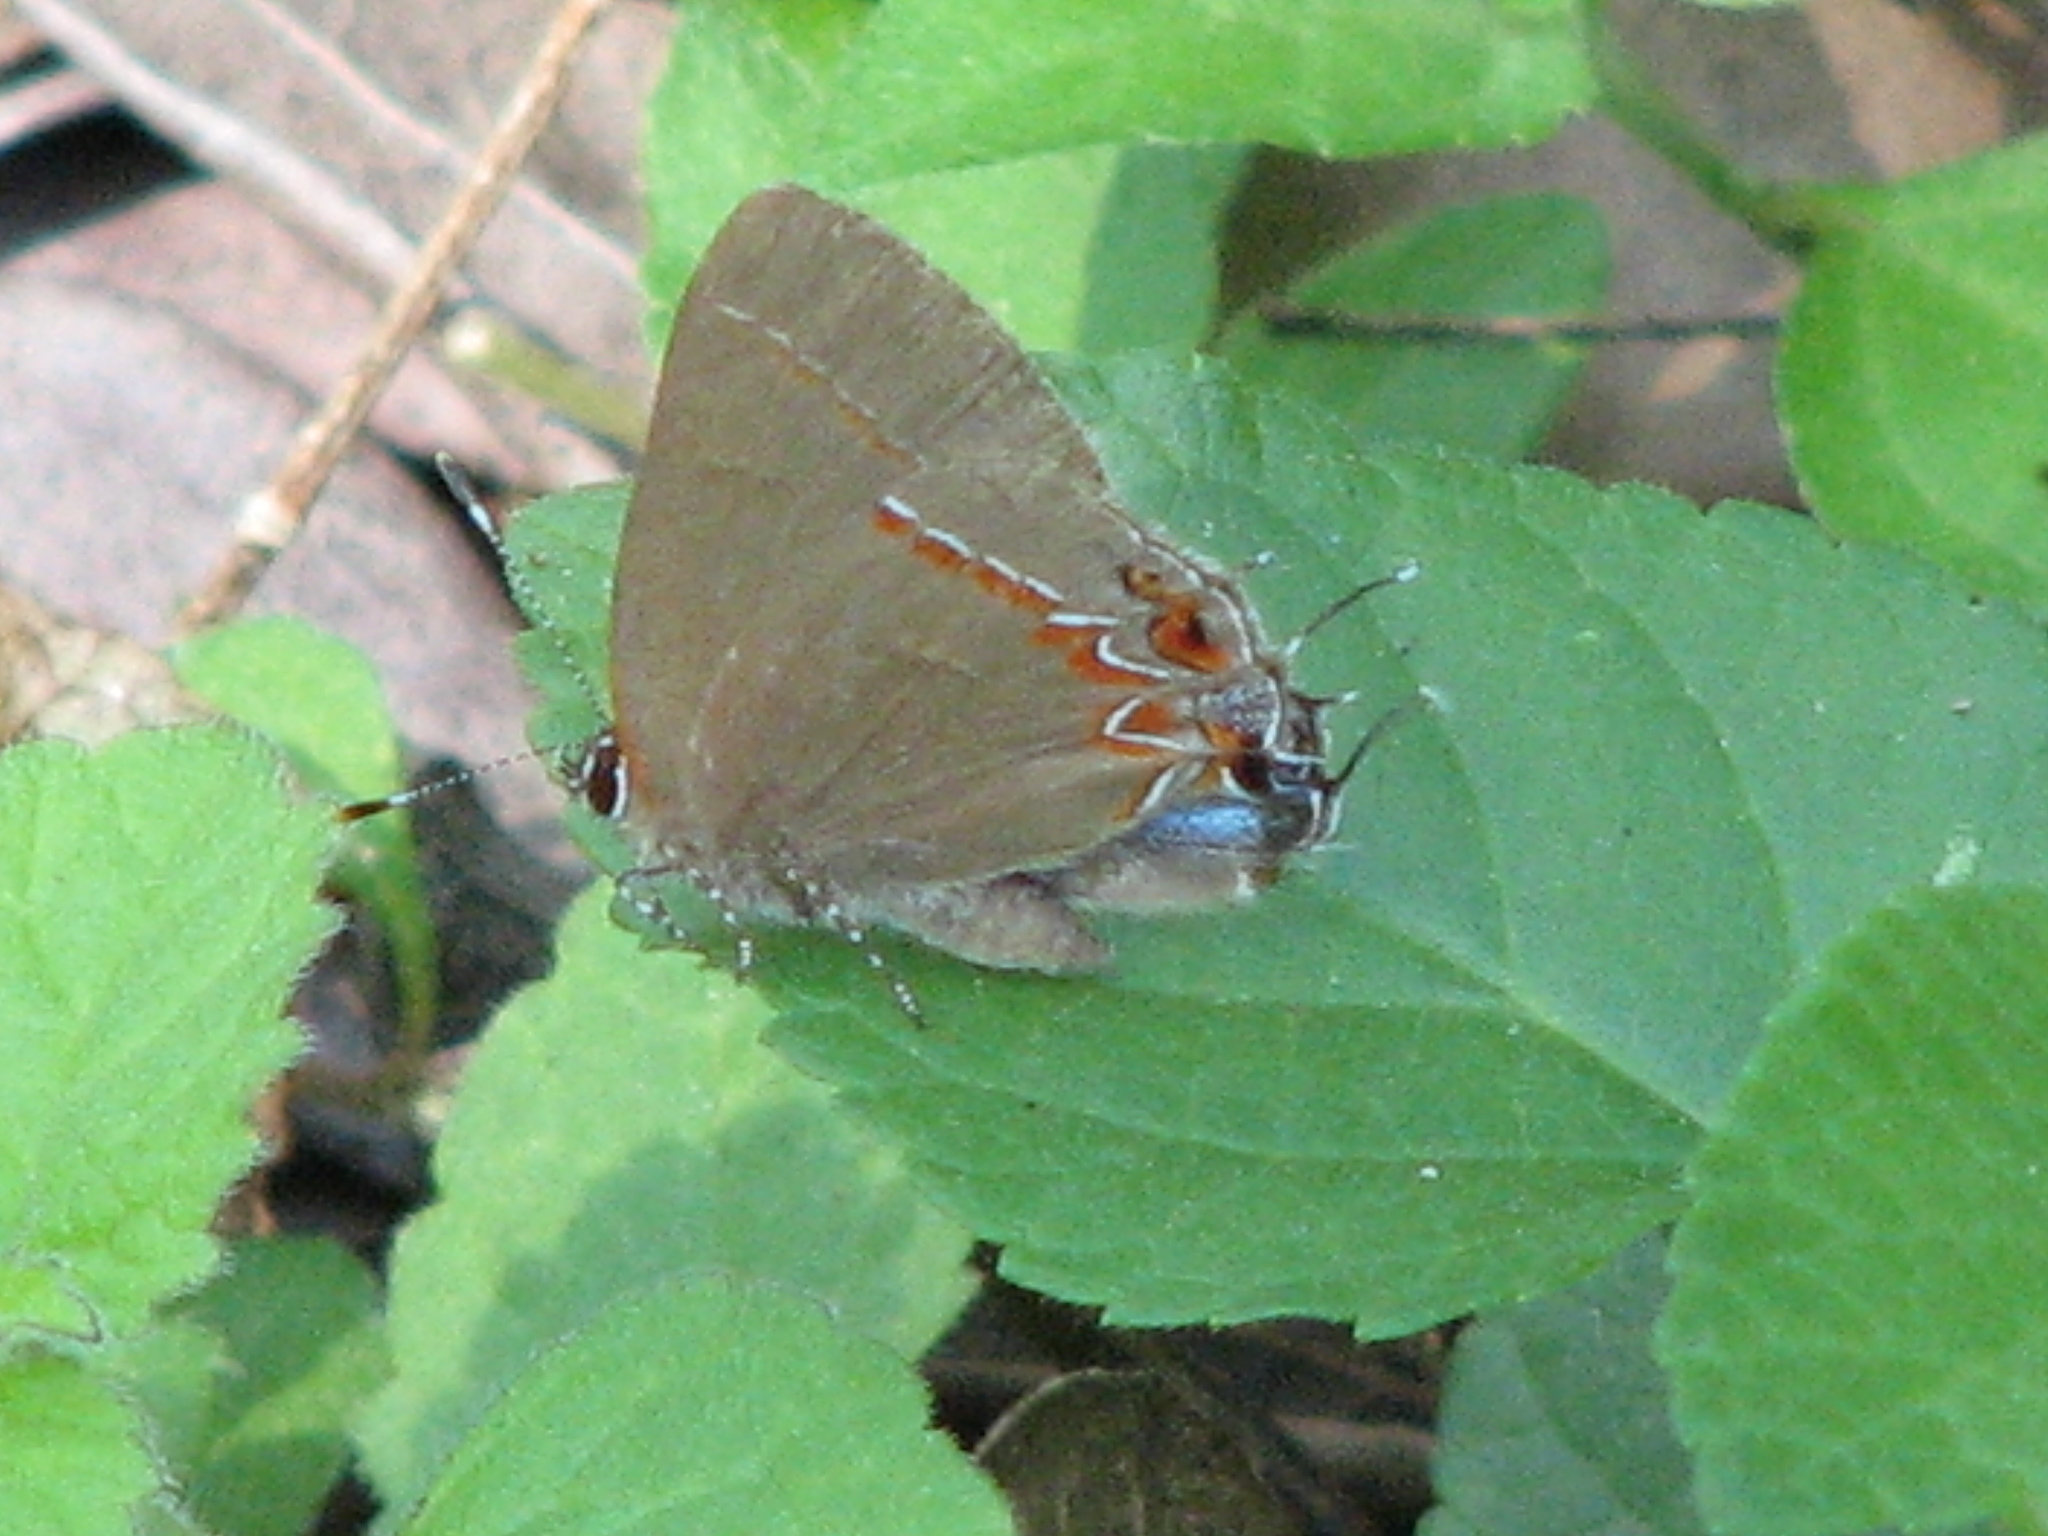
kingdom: Animalia
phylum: Arthropoda
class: Insecta
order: Lepidoptera
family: Lycaenidae
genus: Calycopis
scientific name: Calycopis isobeon
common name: Dusky-blue groundstreak
